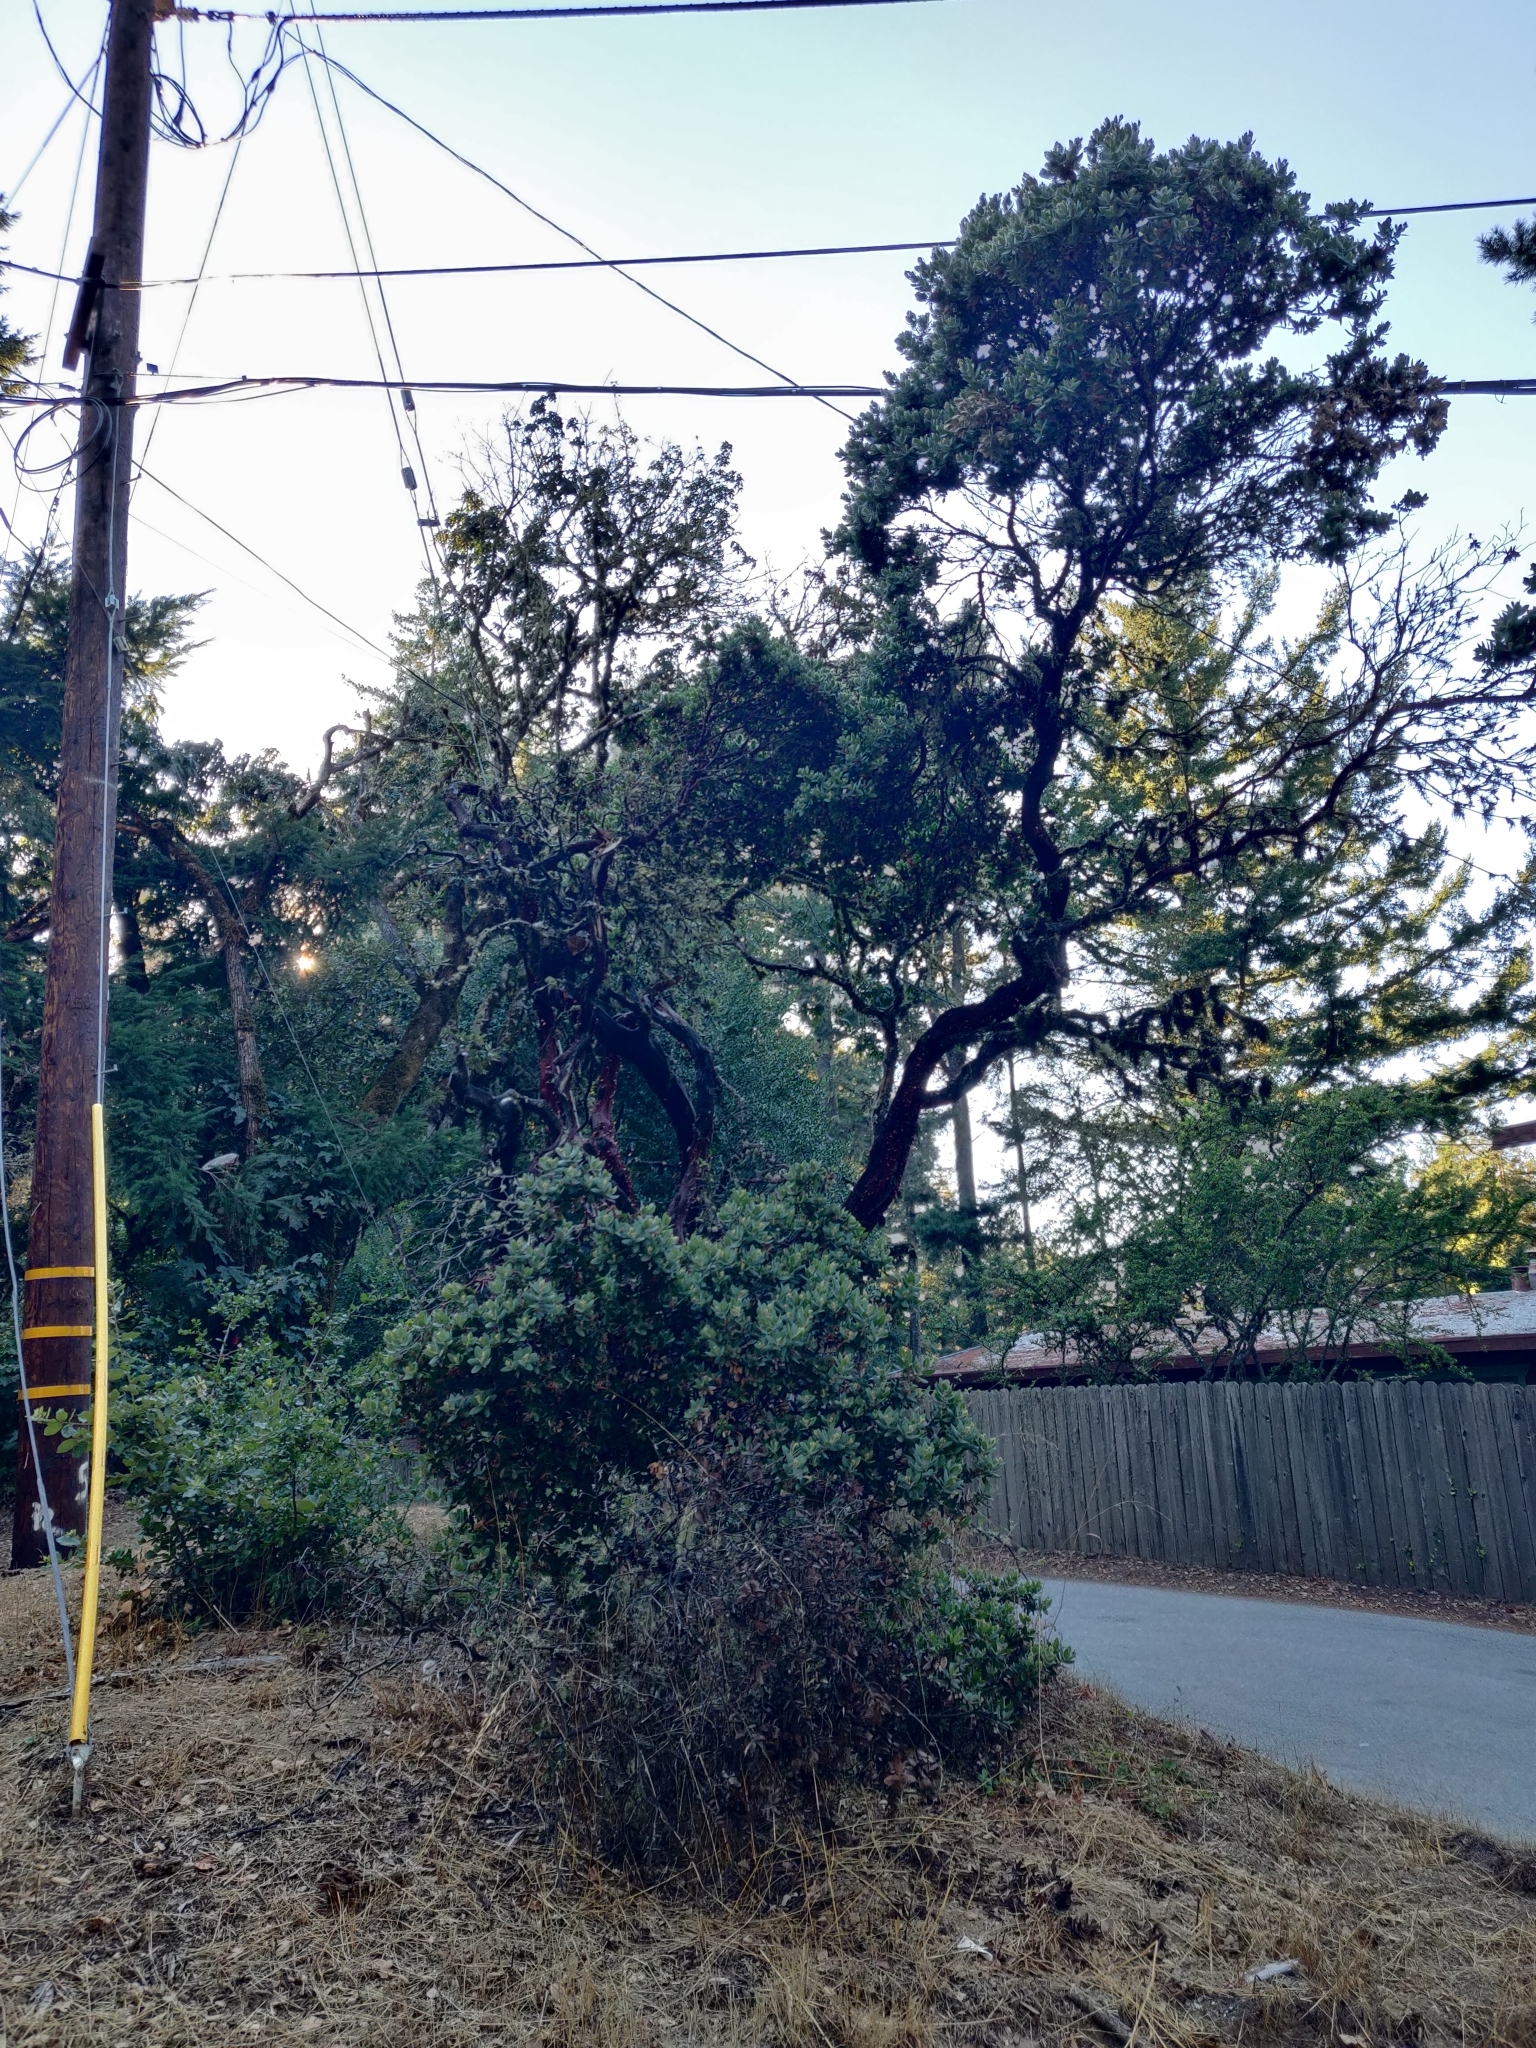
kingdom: Plantae
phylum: Tracheophyta
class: Magnoliopsida
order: Ericales
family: Ericaceae
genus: Arctostaphylos
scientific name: Arctostaphylos regismontana
